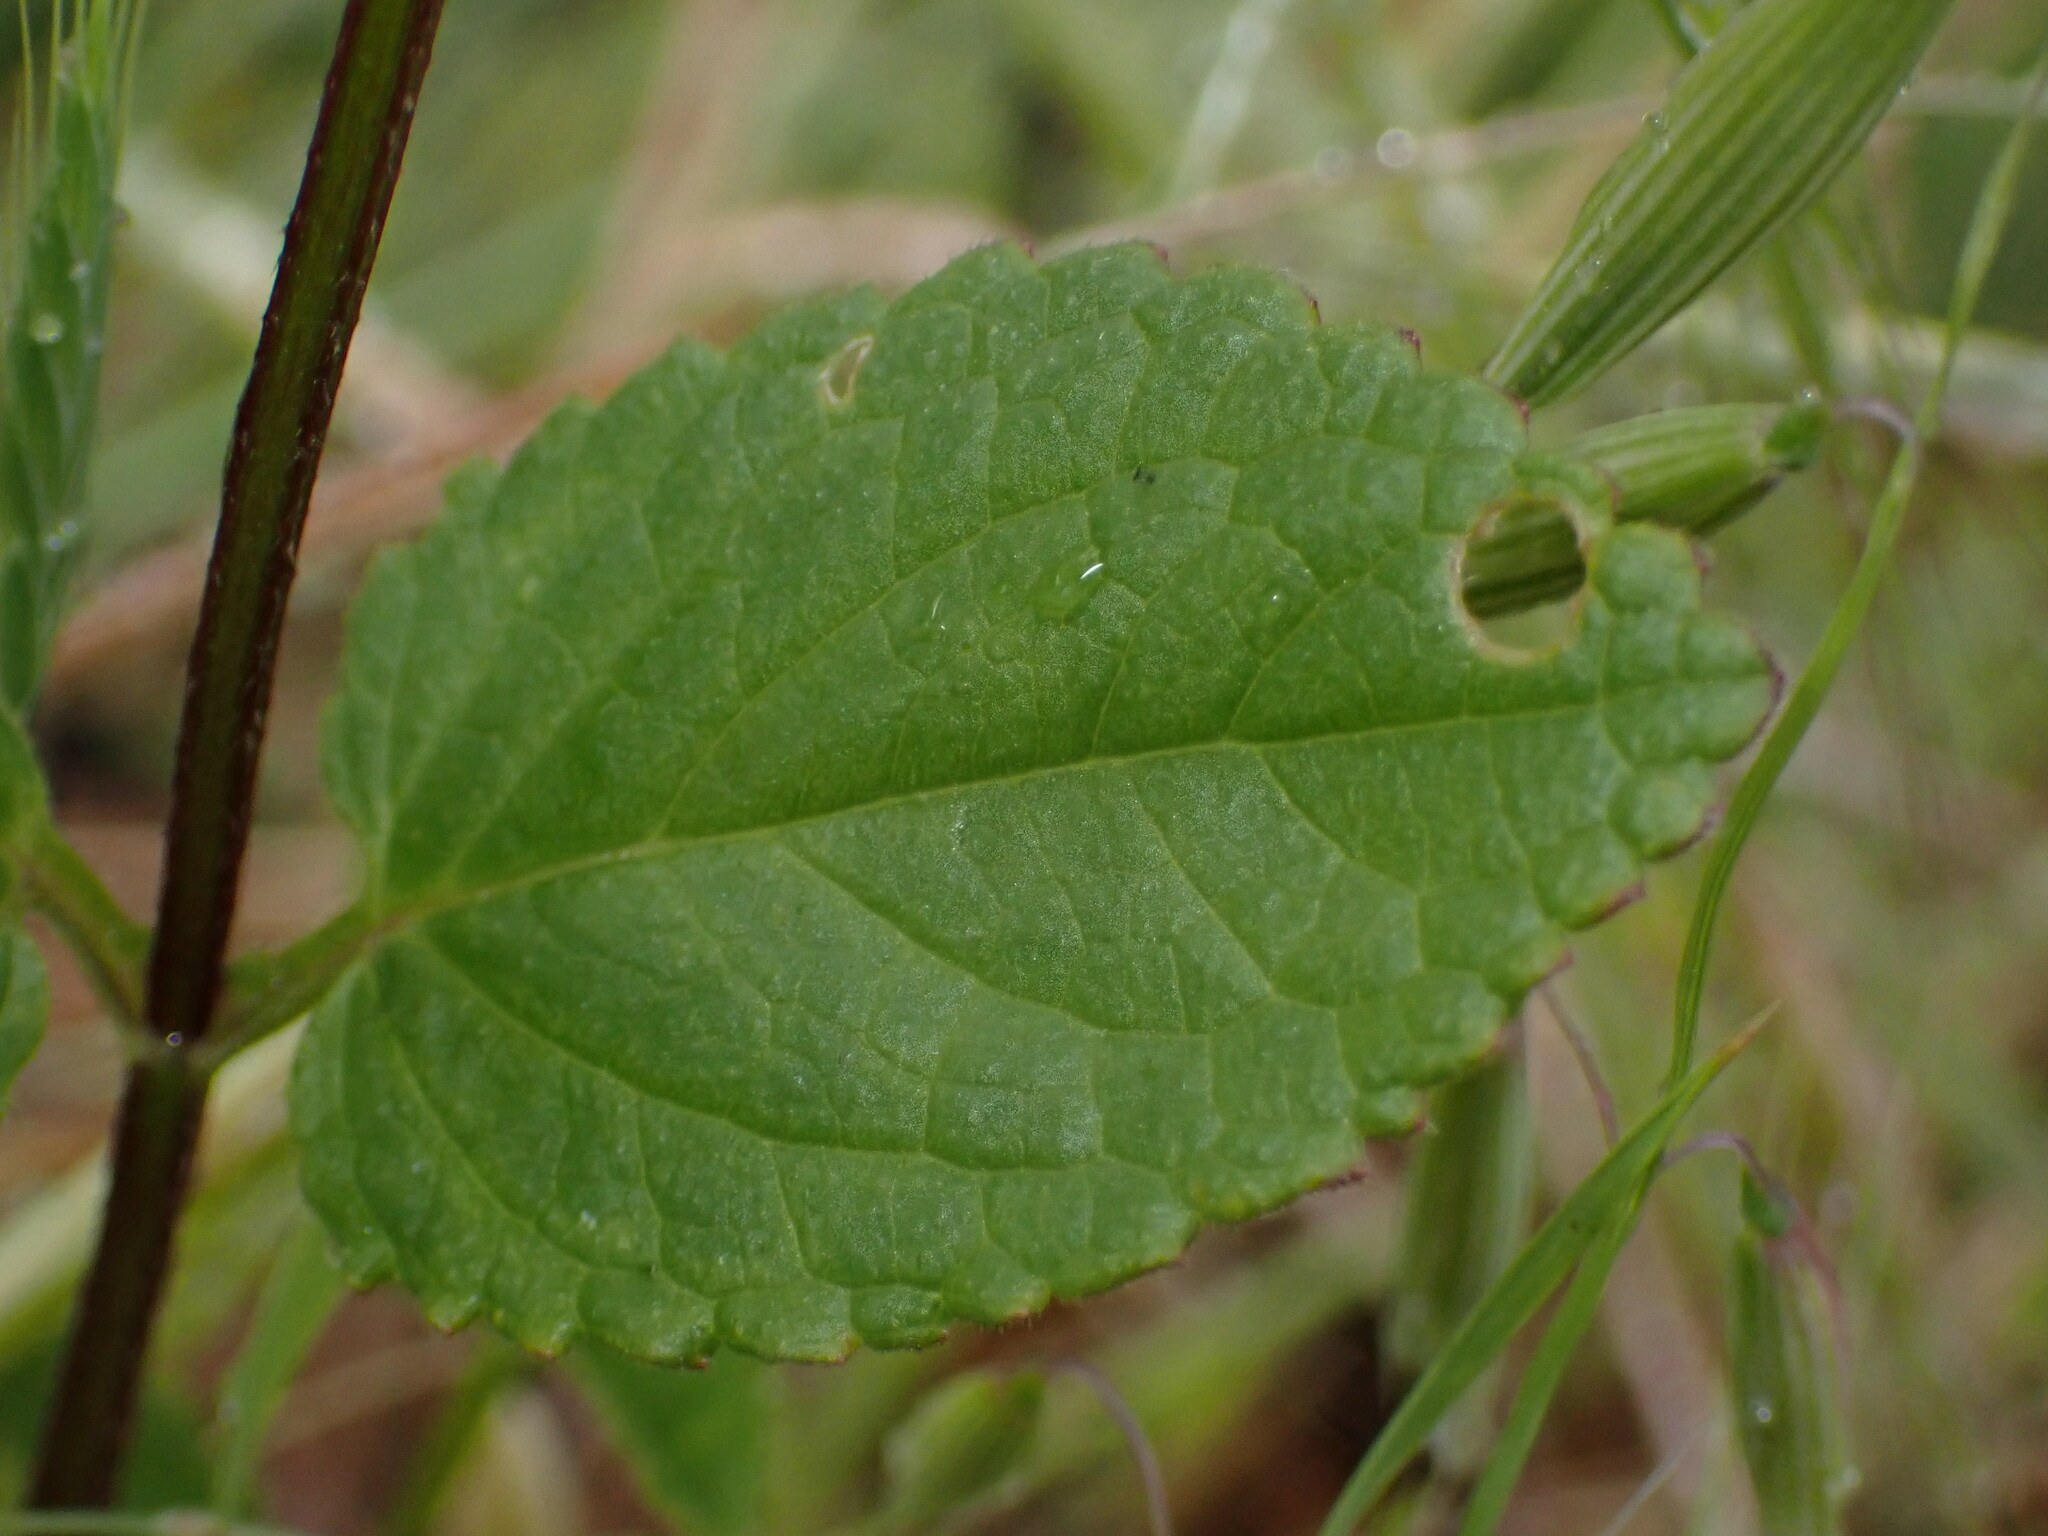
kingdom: Plantae
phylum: Tracheophyta
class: Magnoliopsida
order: Lamiales
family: Lamiaceae
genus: Stachys
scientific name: Stachys rigida
